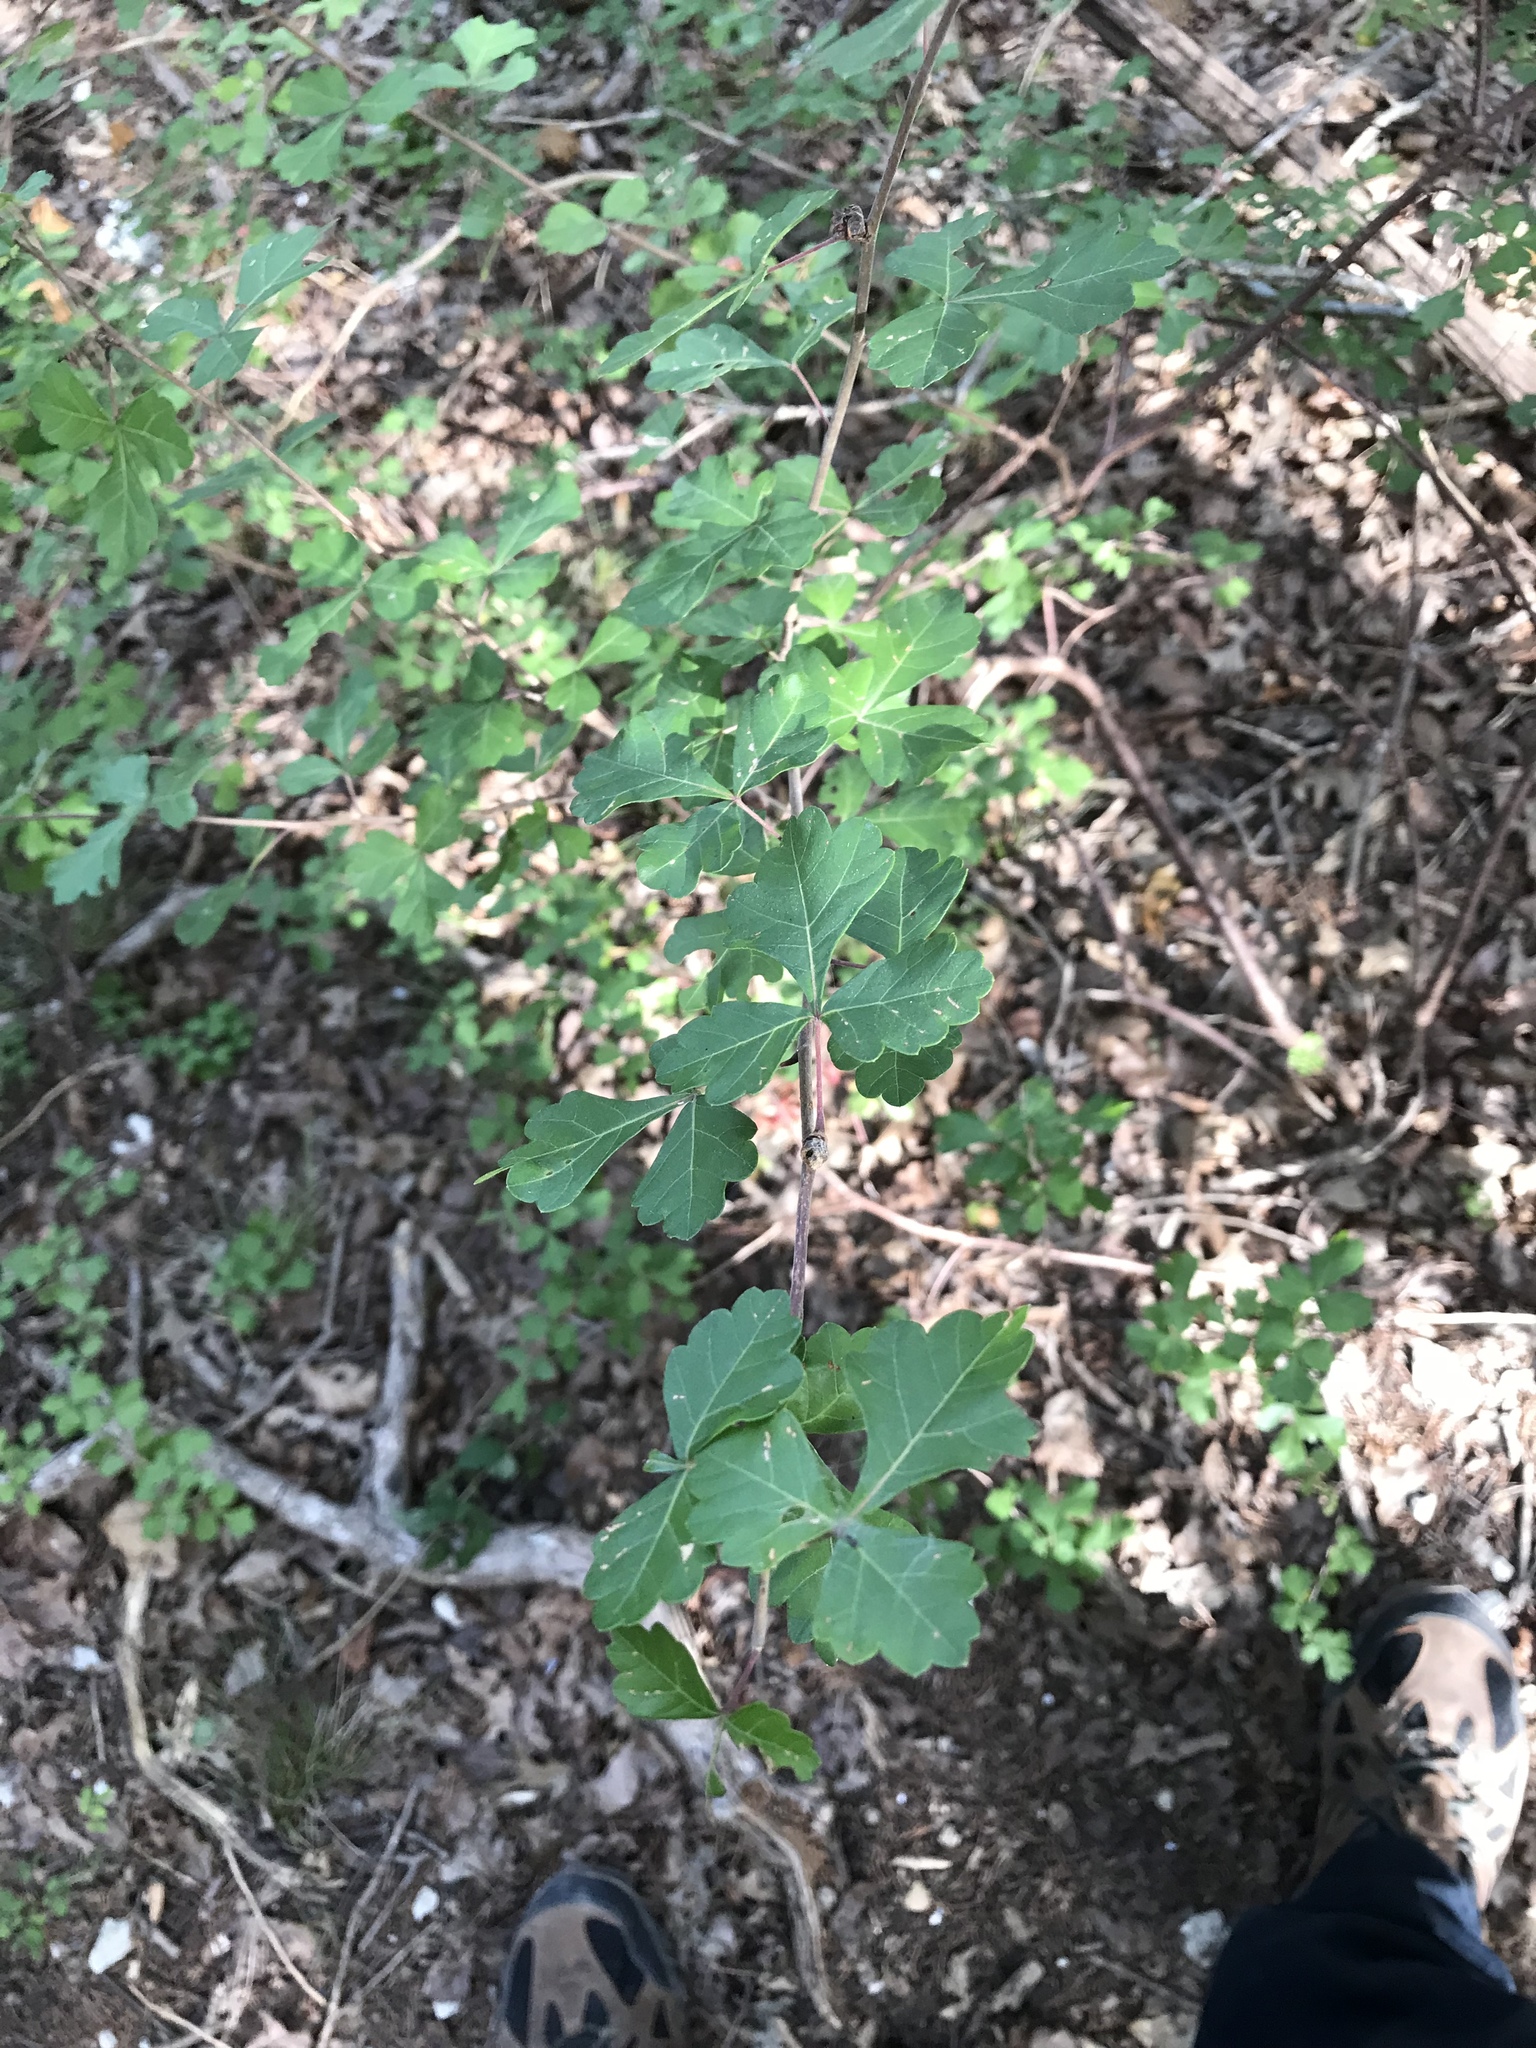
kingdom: Plantae
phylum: Tracheophyta
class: Magnoliopsida
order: Sapindales
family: Anacardiaceae
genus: Rhus
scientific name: Rhus aromatica
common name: Aromatic sumac
